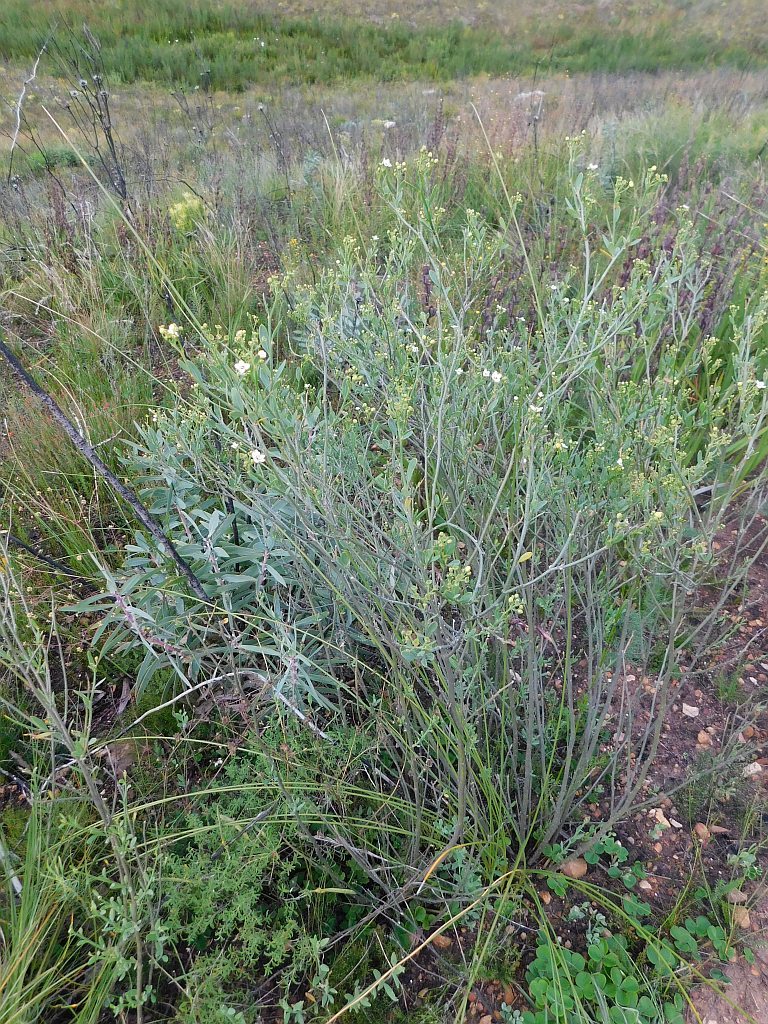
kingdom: Plantae
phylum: Tracheophyta
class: Magnoliopsida
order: Solanales
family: Montiniaceae
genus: Montinia
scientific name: Montinia caryophyllacea
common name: Wild clove-bush
